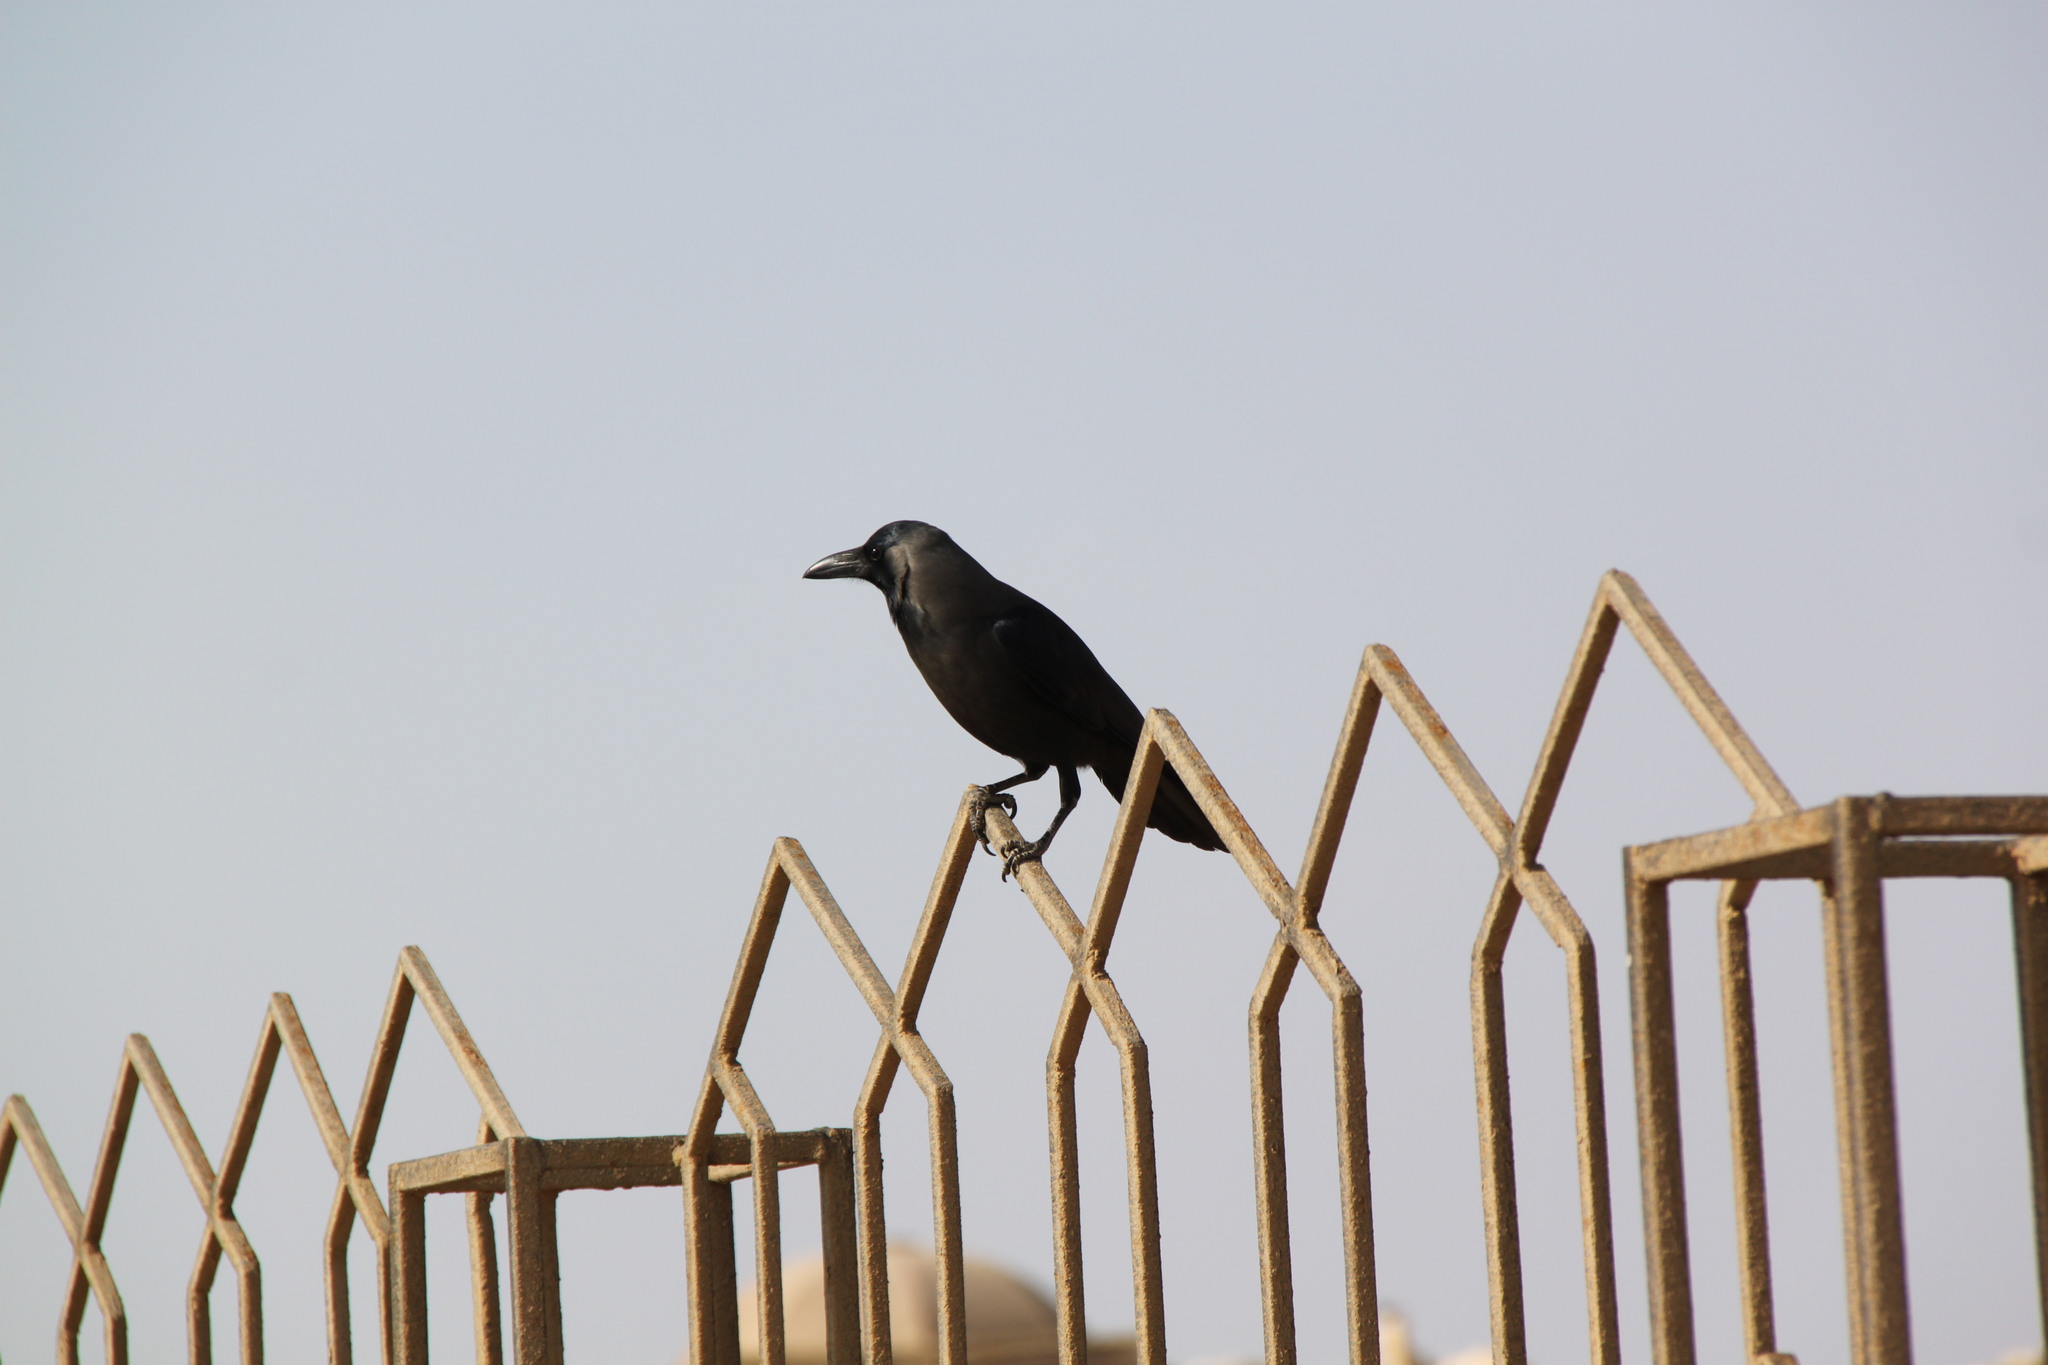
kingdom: Animalia
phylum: Chordata
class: Aves
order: Passeriformes
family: Corvidae
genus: Corvus
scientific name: Corvus splendens
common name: House crow
